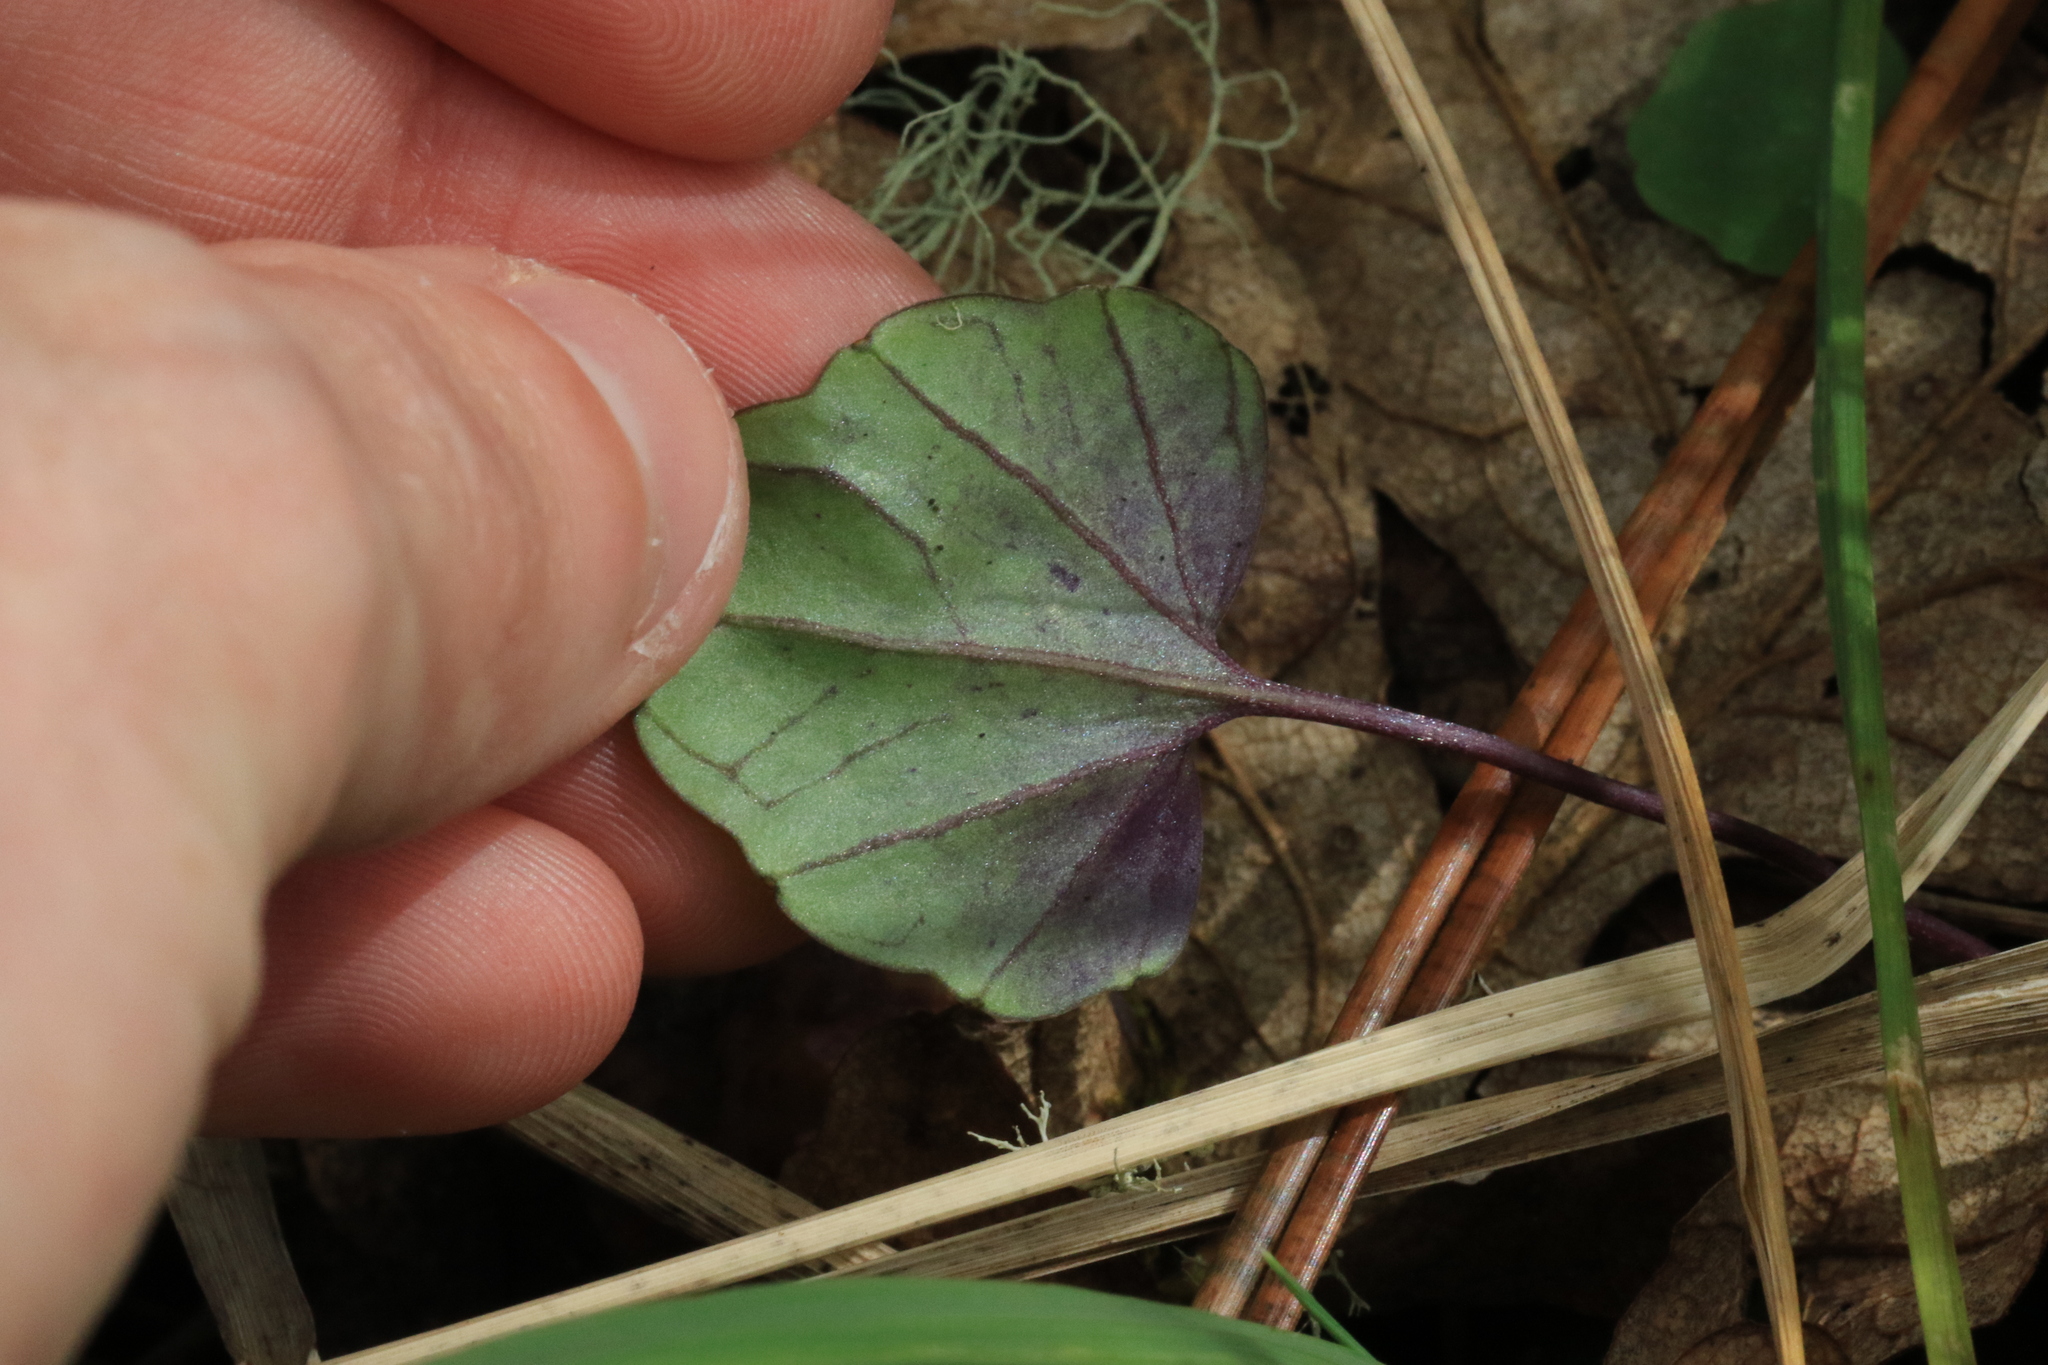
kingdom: Plantae
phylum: Tracheophyta
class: Magnoliopsida
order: Brassicales
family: Brassicaceae
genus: Cardamine
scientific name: Cardamine nuttallii
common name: Nuttall's toothwort
